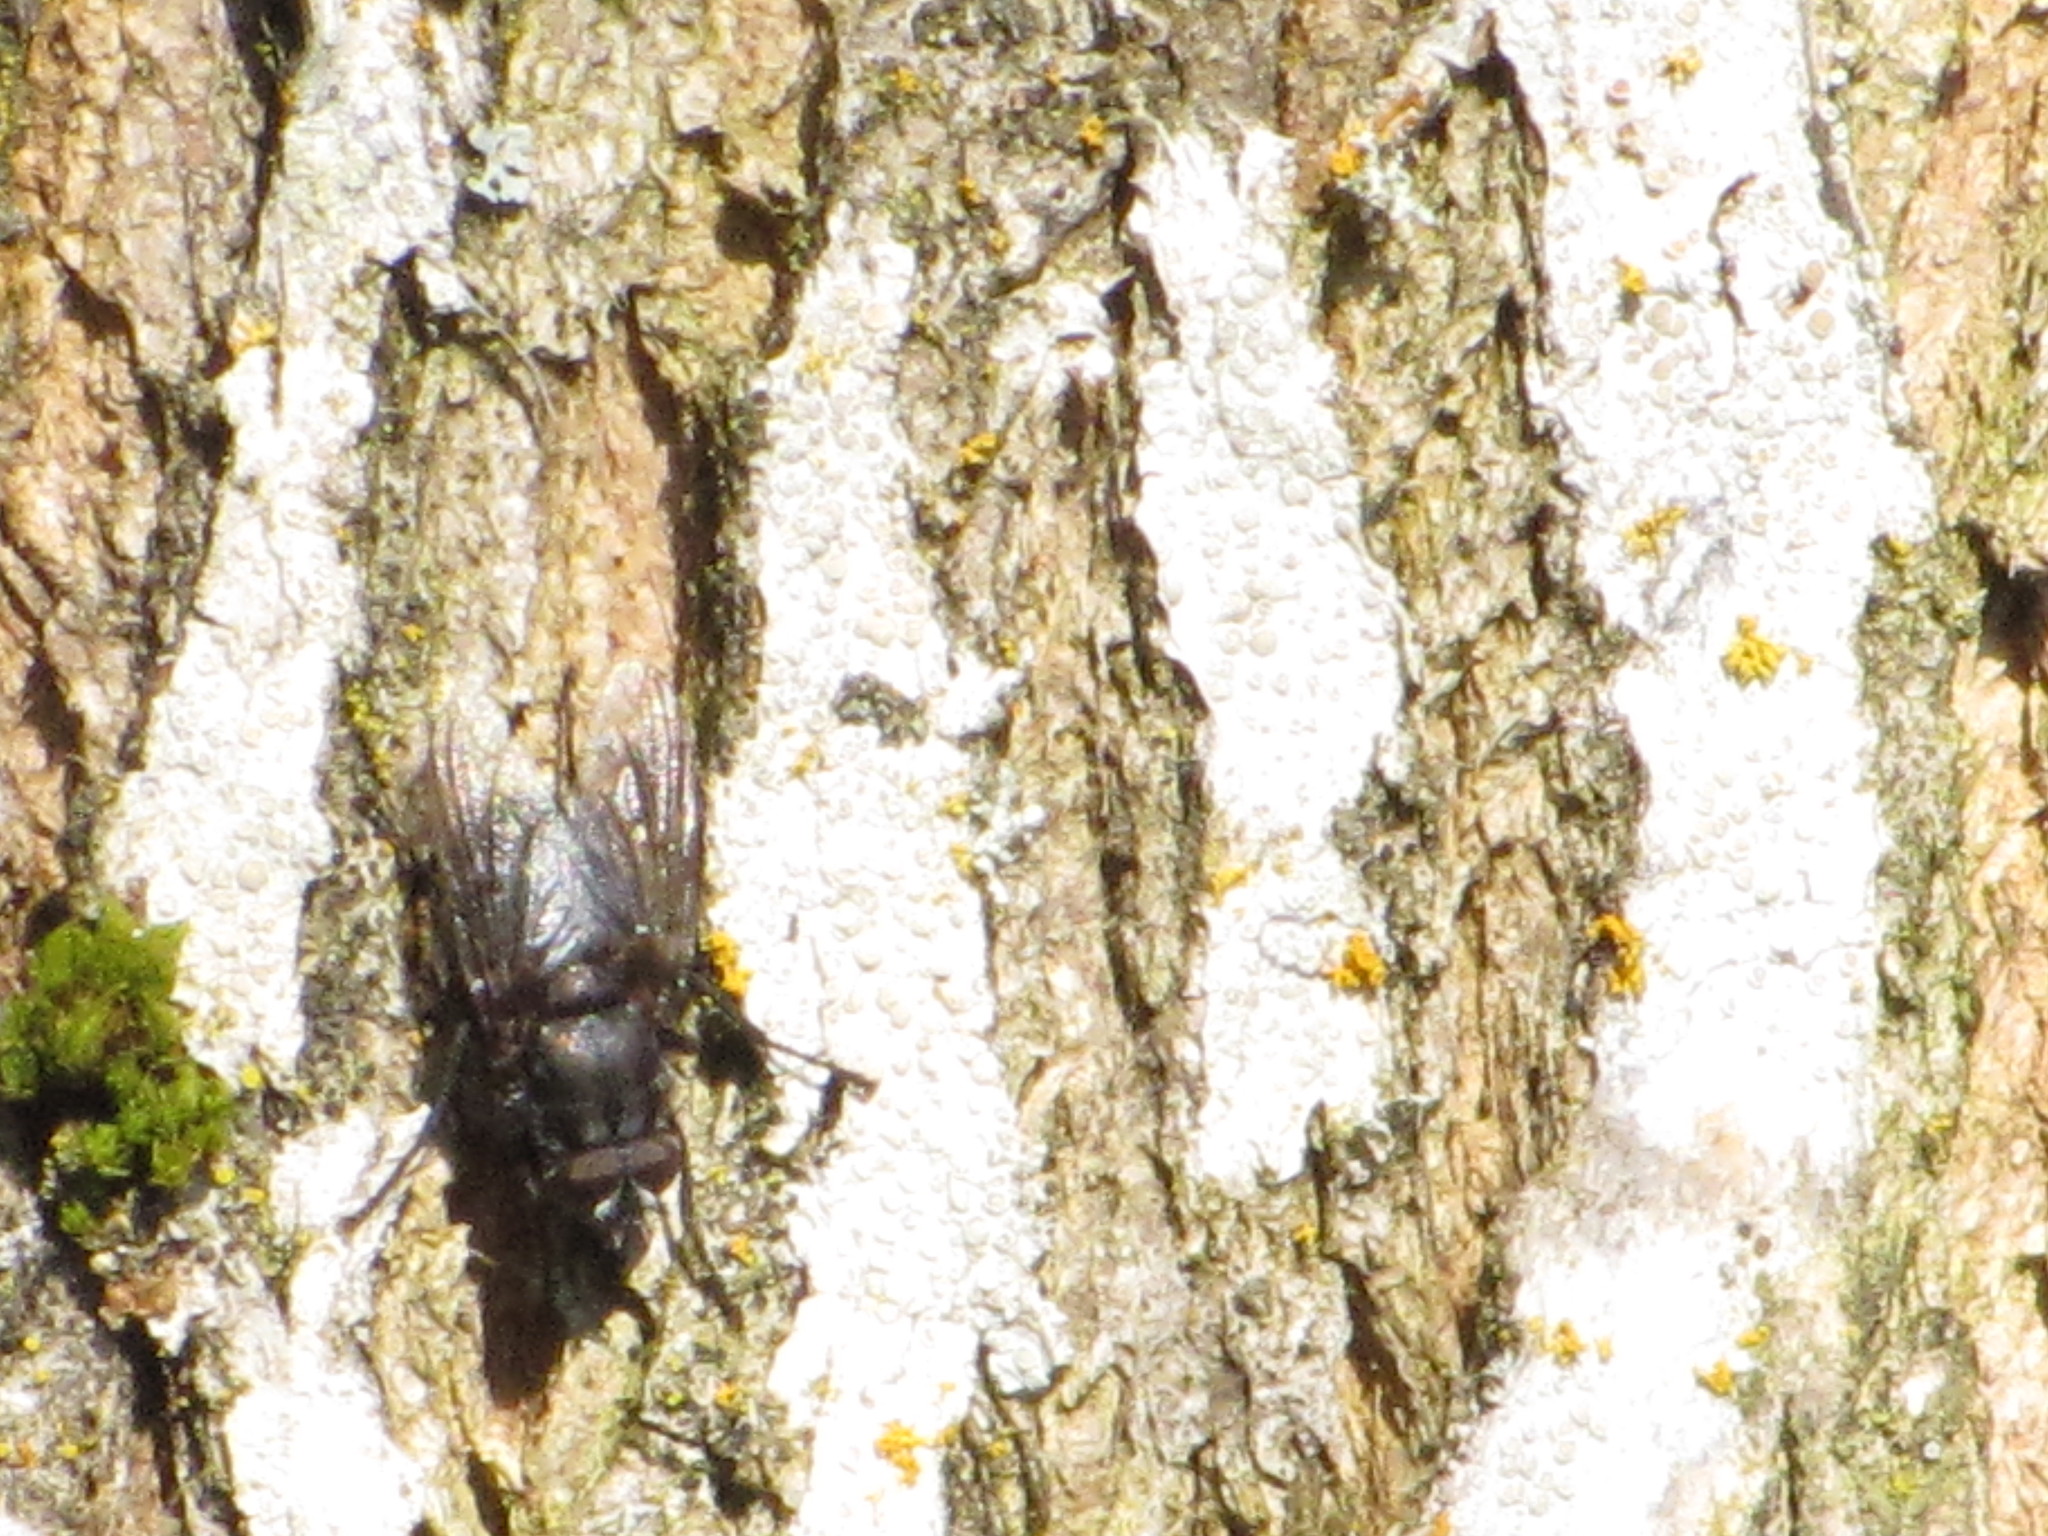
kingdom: Animalia
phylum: Arthropoda
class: Insecta
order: Diptera
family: Polleniidae
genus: Pollenia
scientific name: Pollenia vagabunda
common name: Vagabund cluster fly
